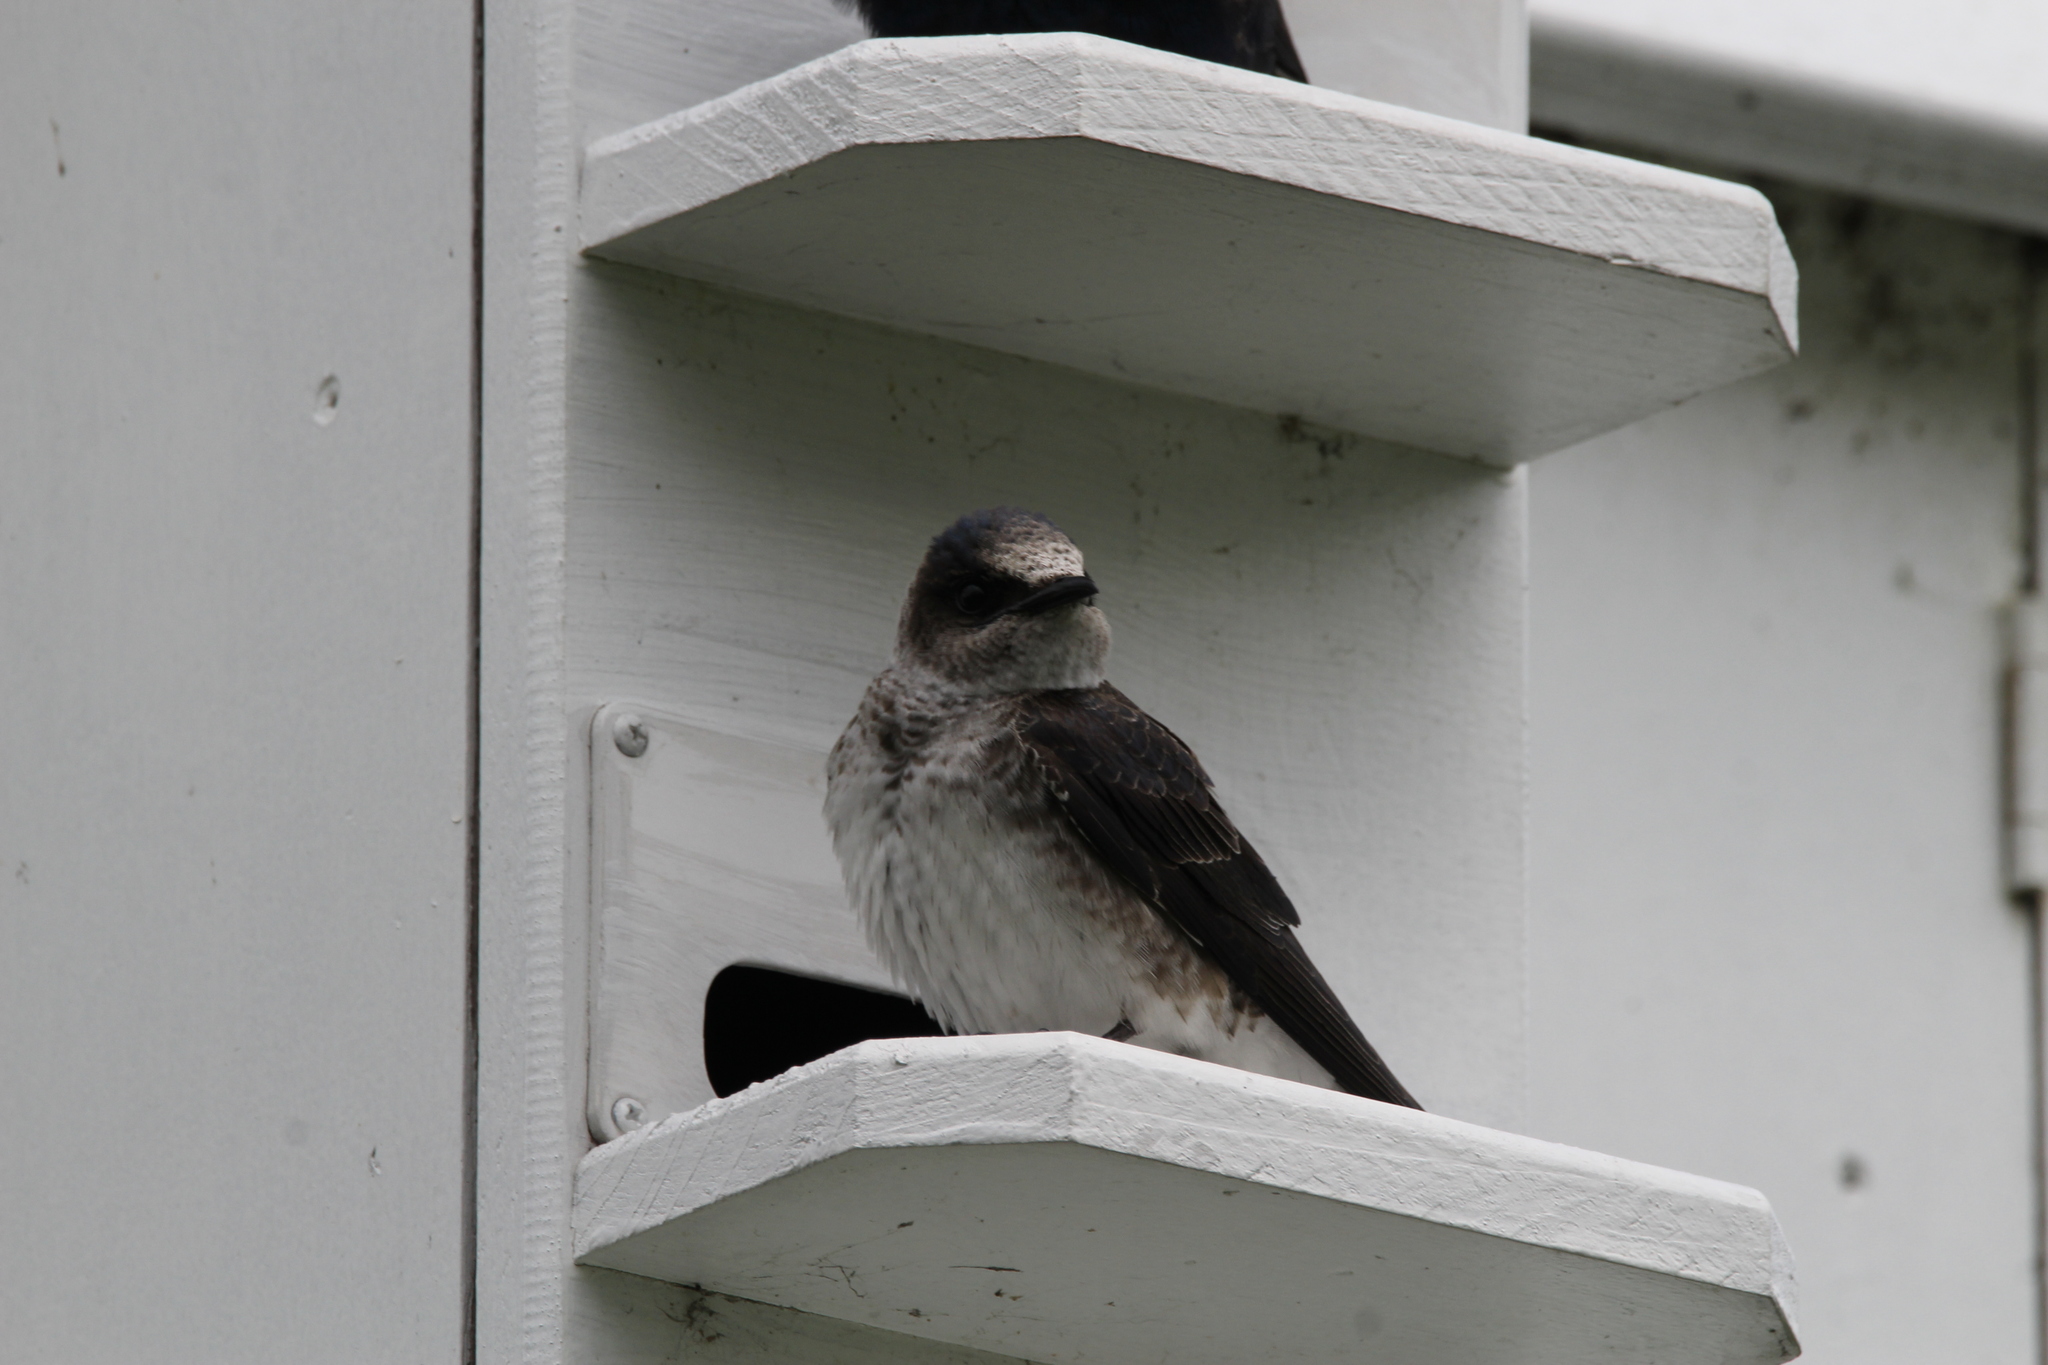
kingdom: Animalia
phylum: Chordata
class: Aves
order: Passeriformes
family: Hirundinidae
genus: Progne
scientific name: Progne subis
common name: Purple martin
